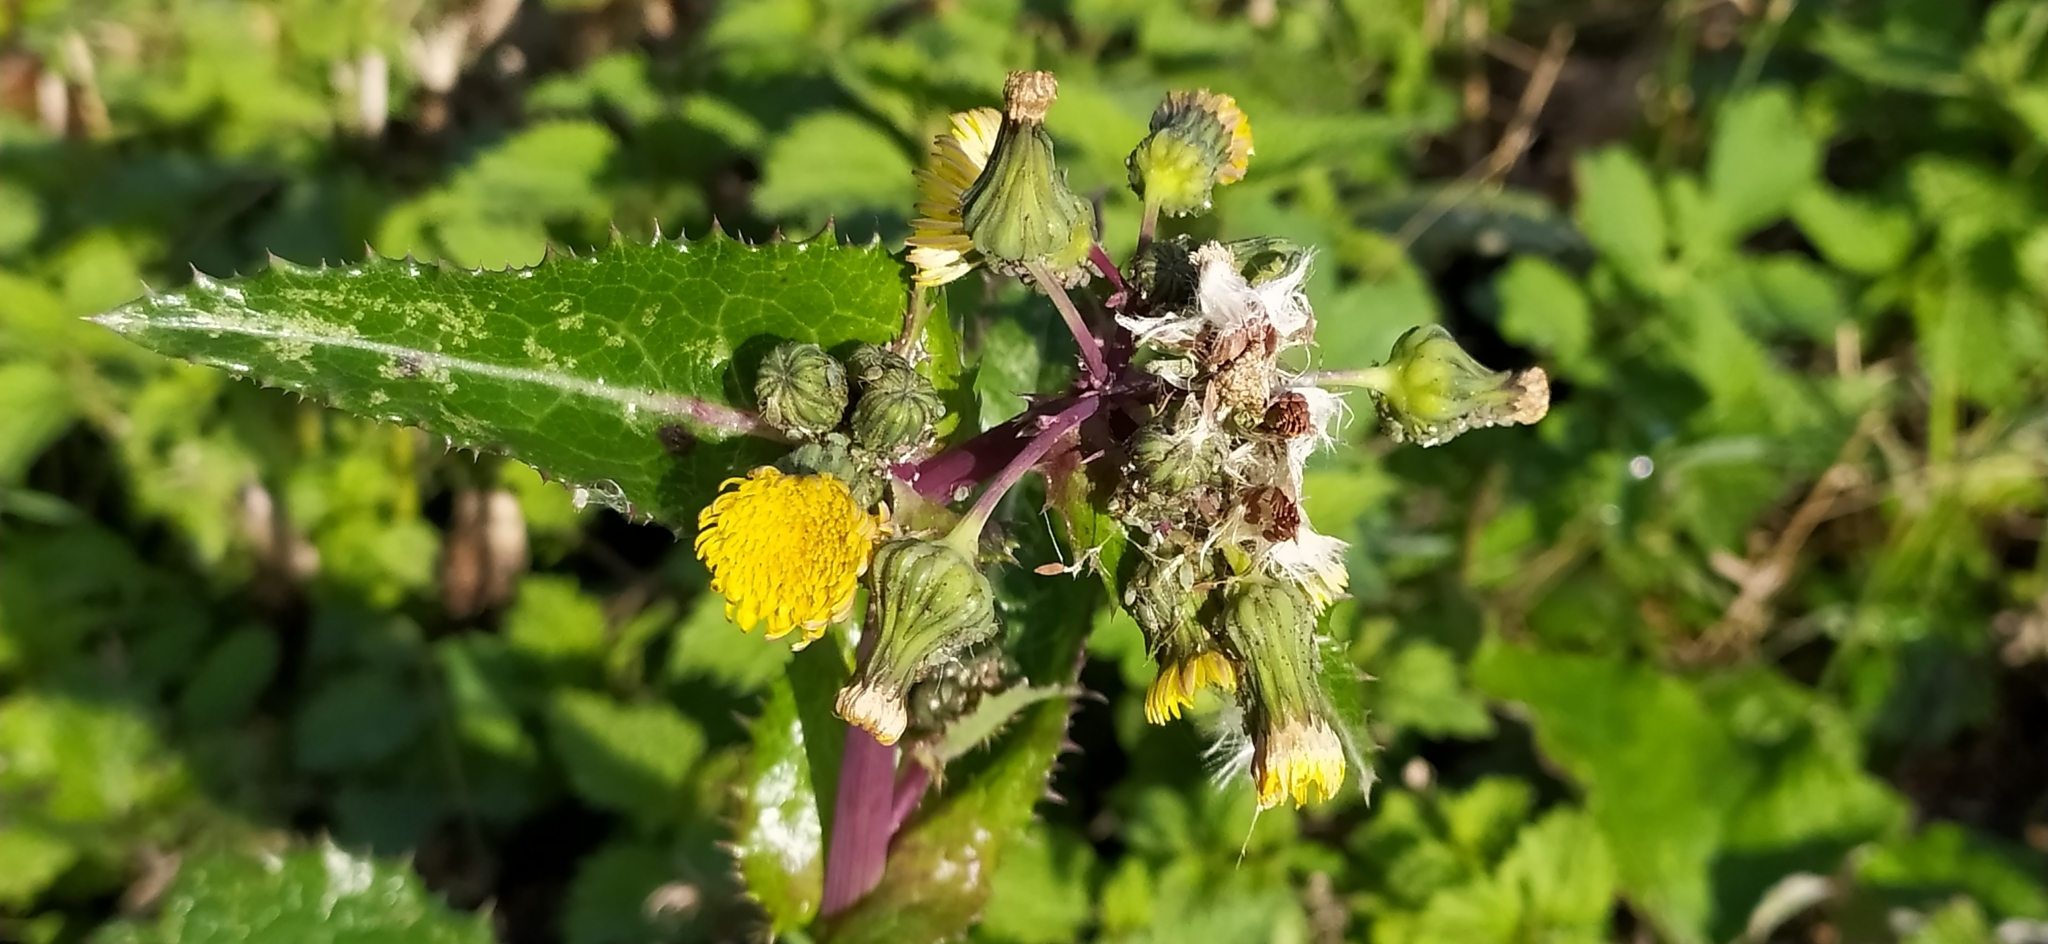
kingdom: Plantae
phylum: Tracheophyta
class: Magnoliopsida
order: Asterales
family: Asteraceae
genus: Sonchus
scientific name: Sonchus asper
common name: Prickly sow-thistle
